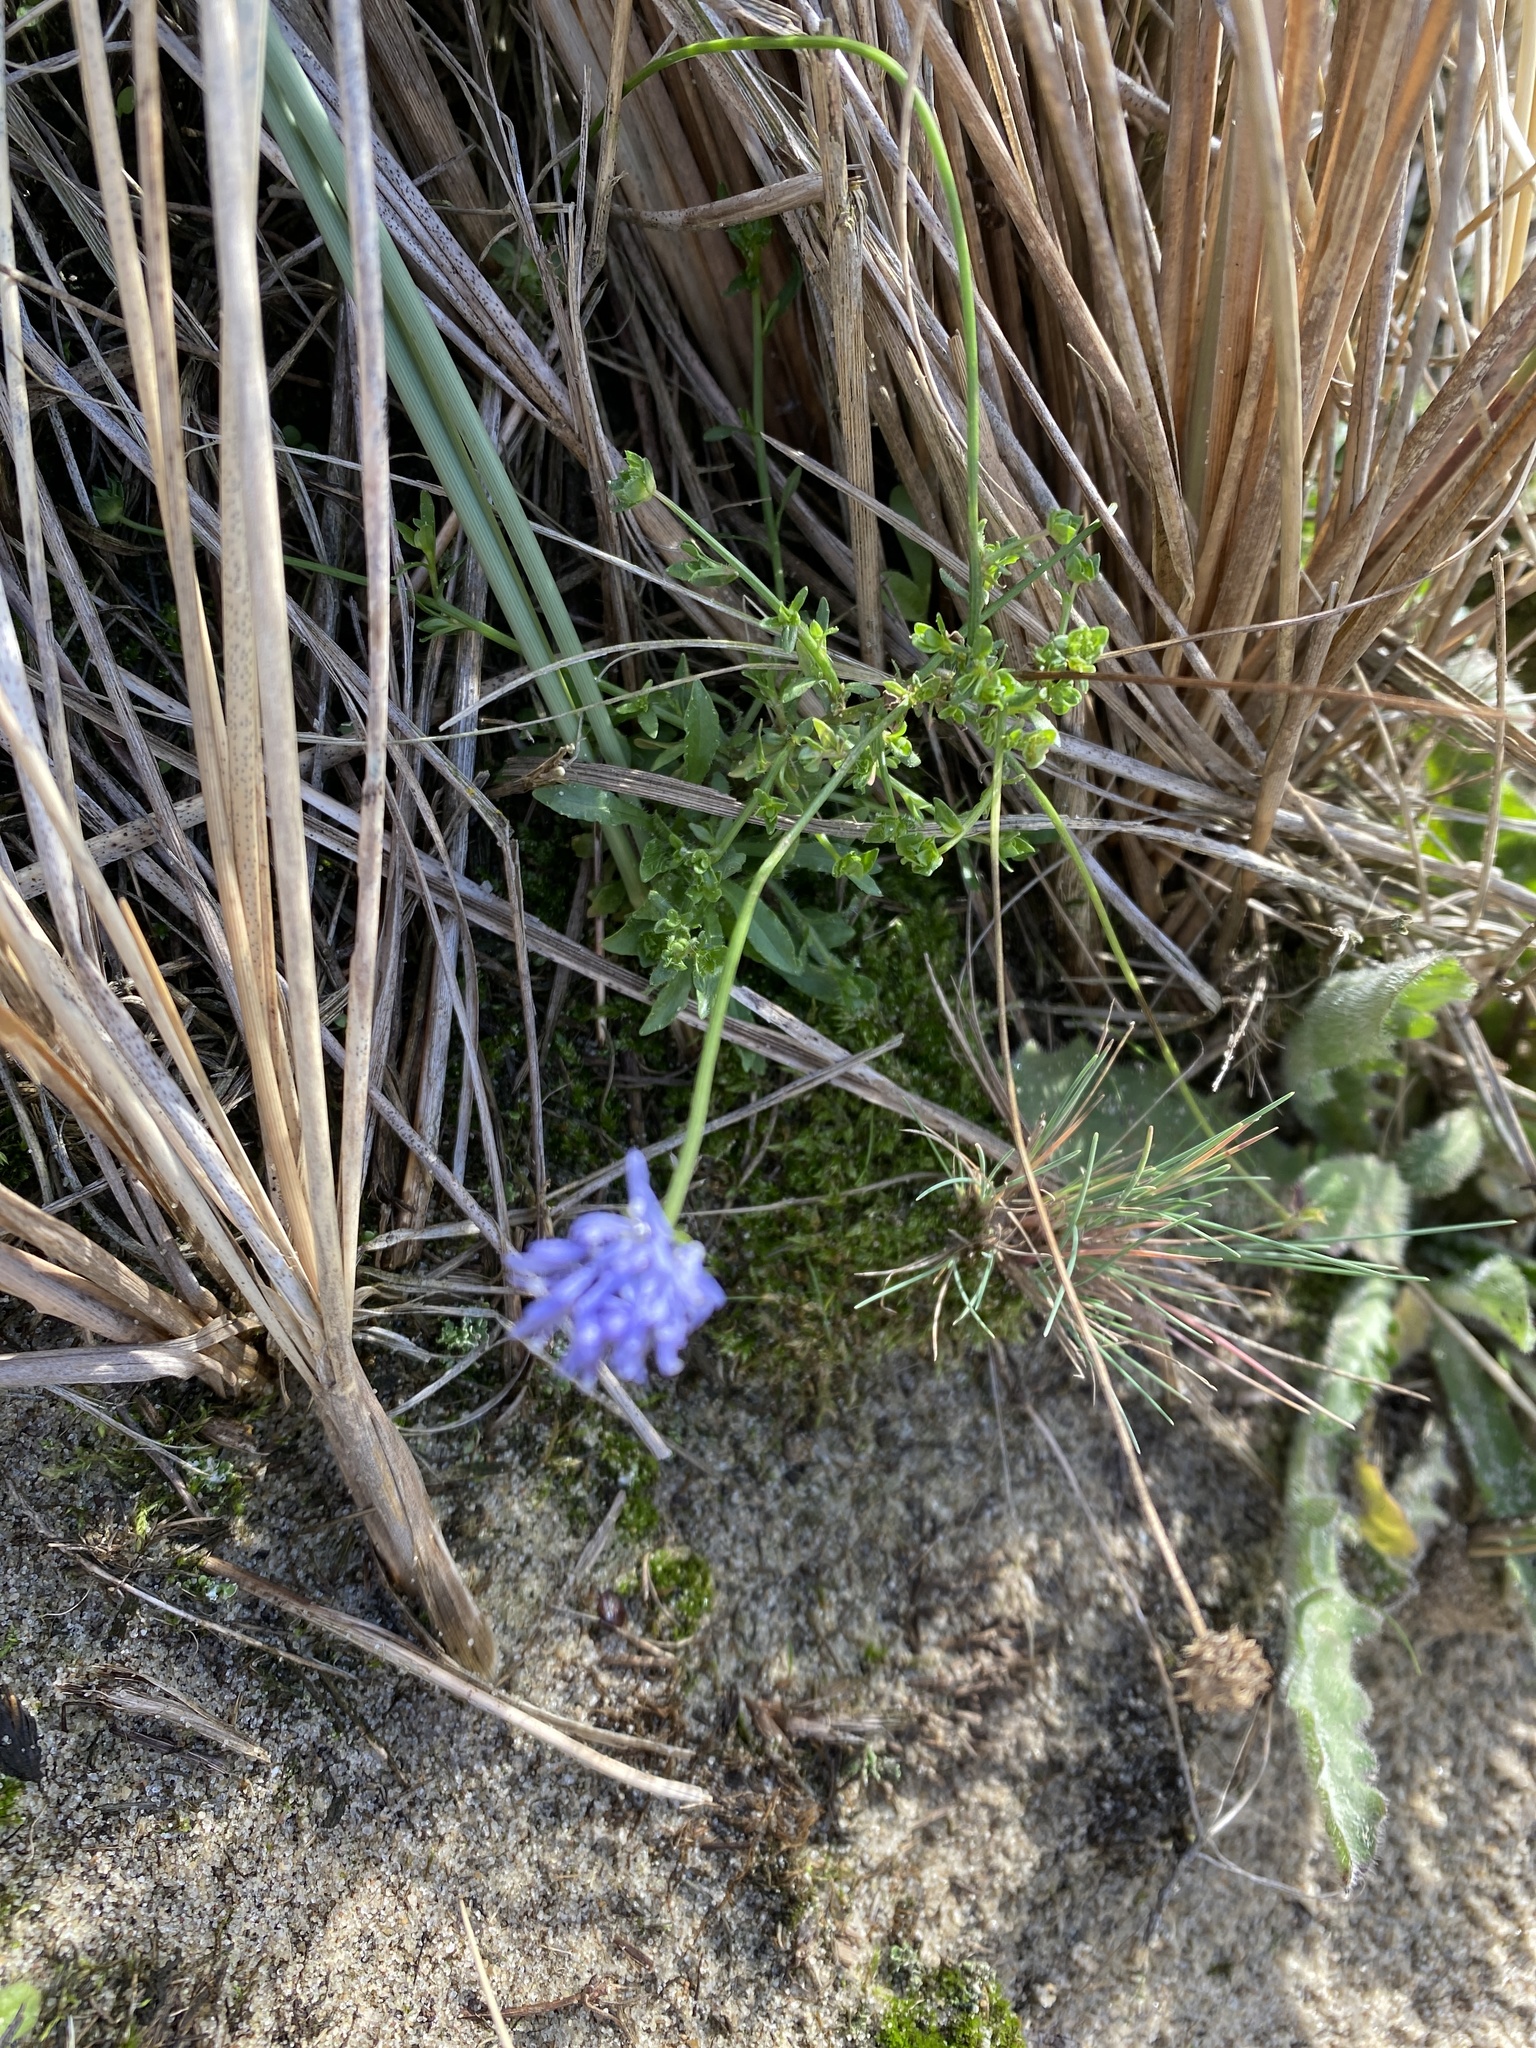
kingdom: Plantae
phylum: Tracheophyta
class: Magnoliopsida
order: Asterales
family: Campanulaceae
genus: Jasione
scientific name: Jasione montana
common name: Sheep's-bit
